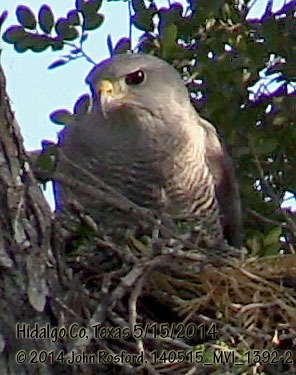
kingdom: Animalia
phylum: Chordata
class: Aves
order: Accipitriformes
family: Accipitridae
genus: Buteo
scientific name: Buteo nitidus
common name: Grey-lined hawk
